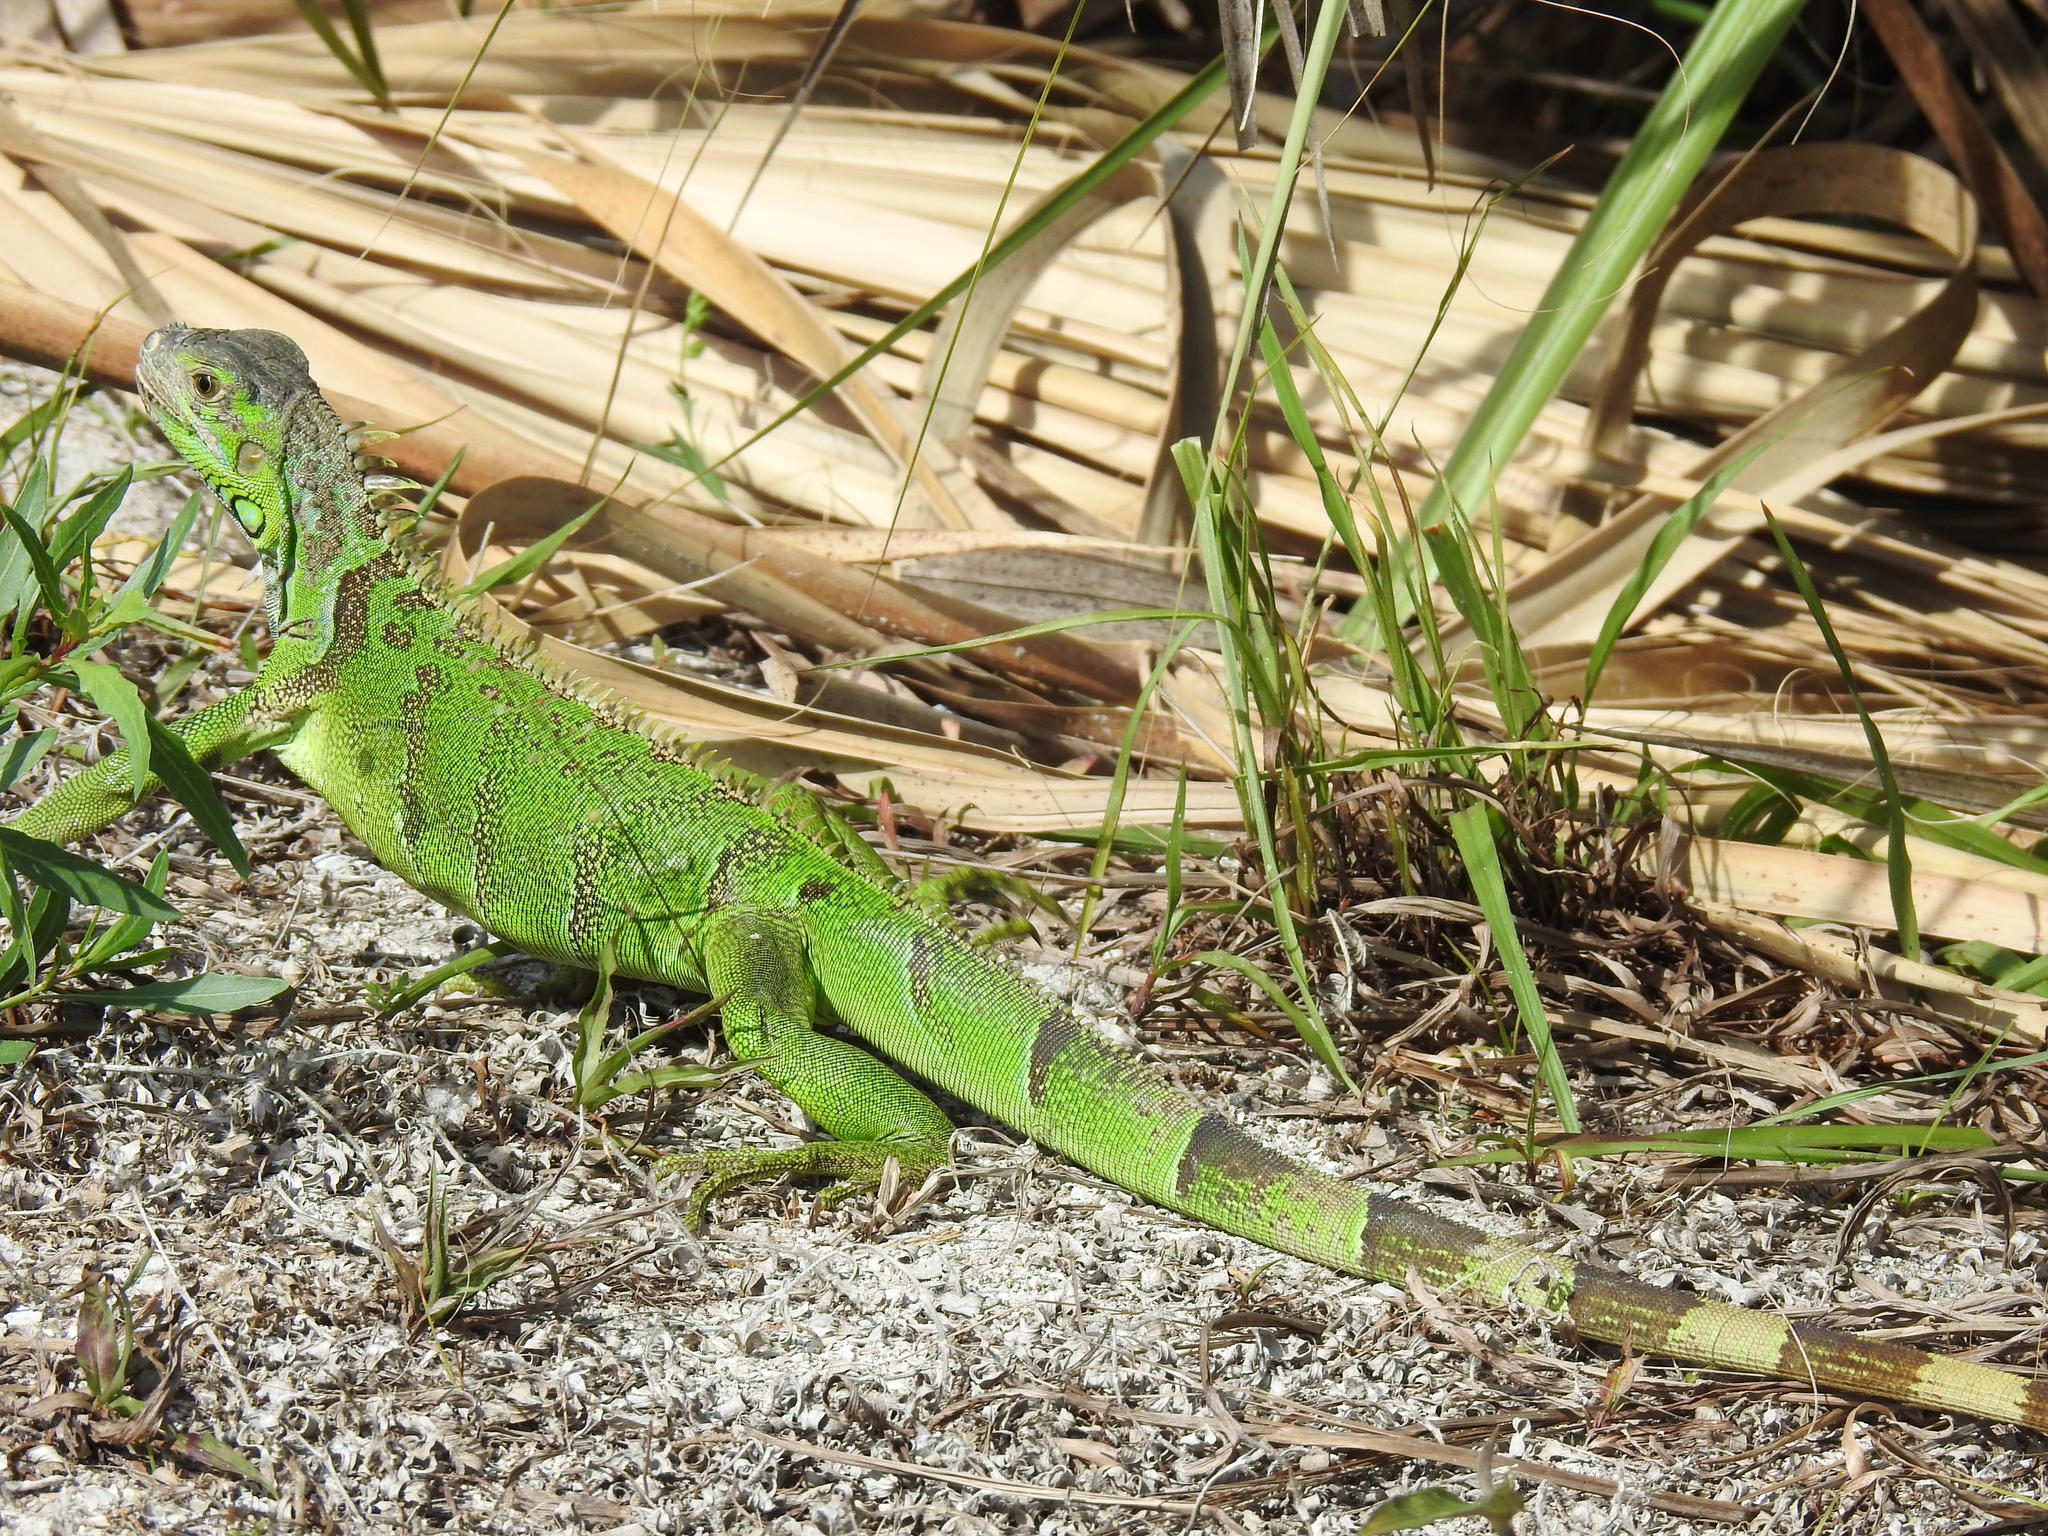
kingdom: Animalia
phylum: Chordata
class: Squamata
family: Iguanidae
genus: Iguana
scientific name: Iguana iguana
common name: Green iguana
